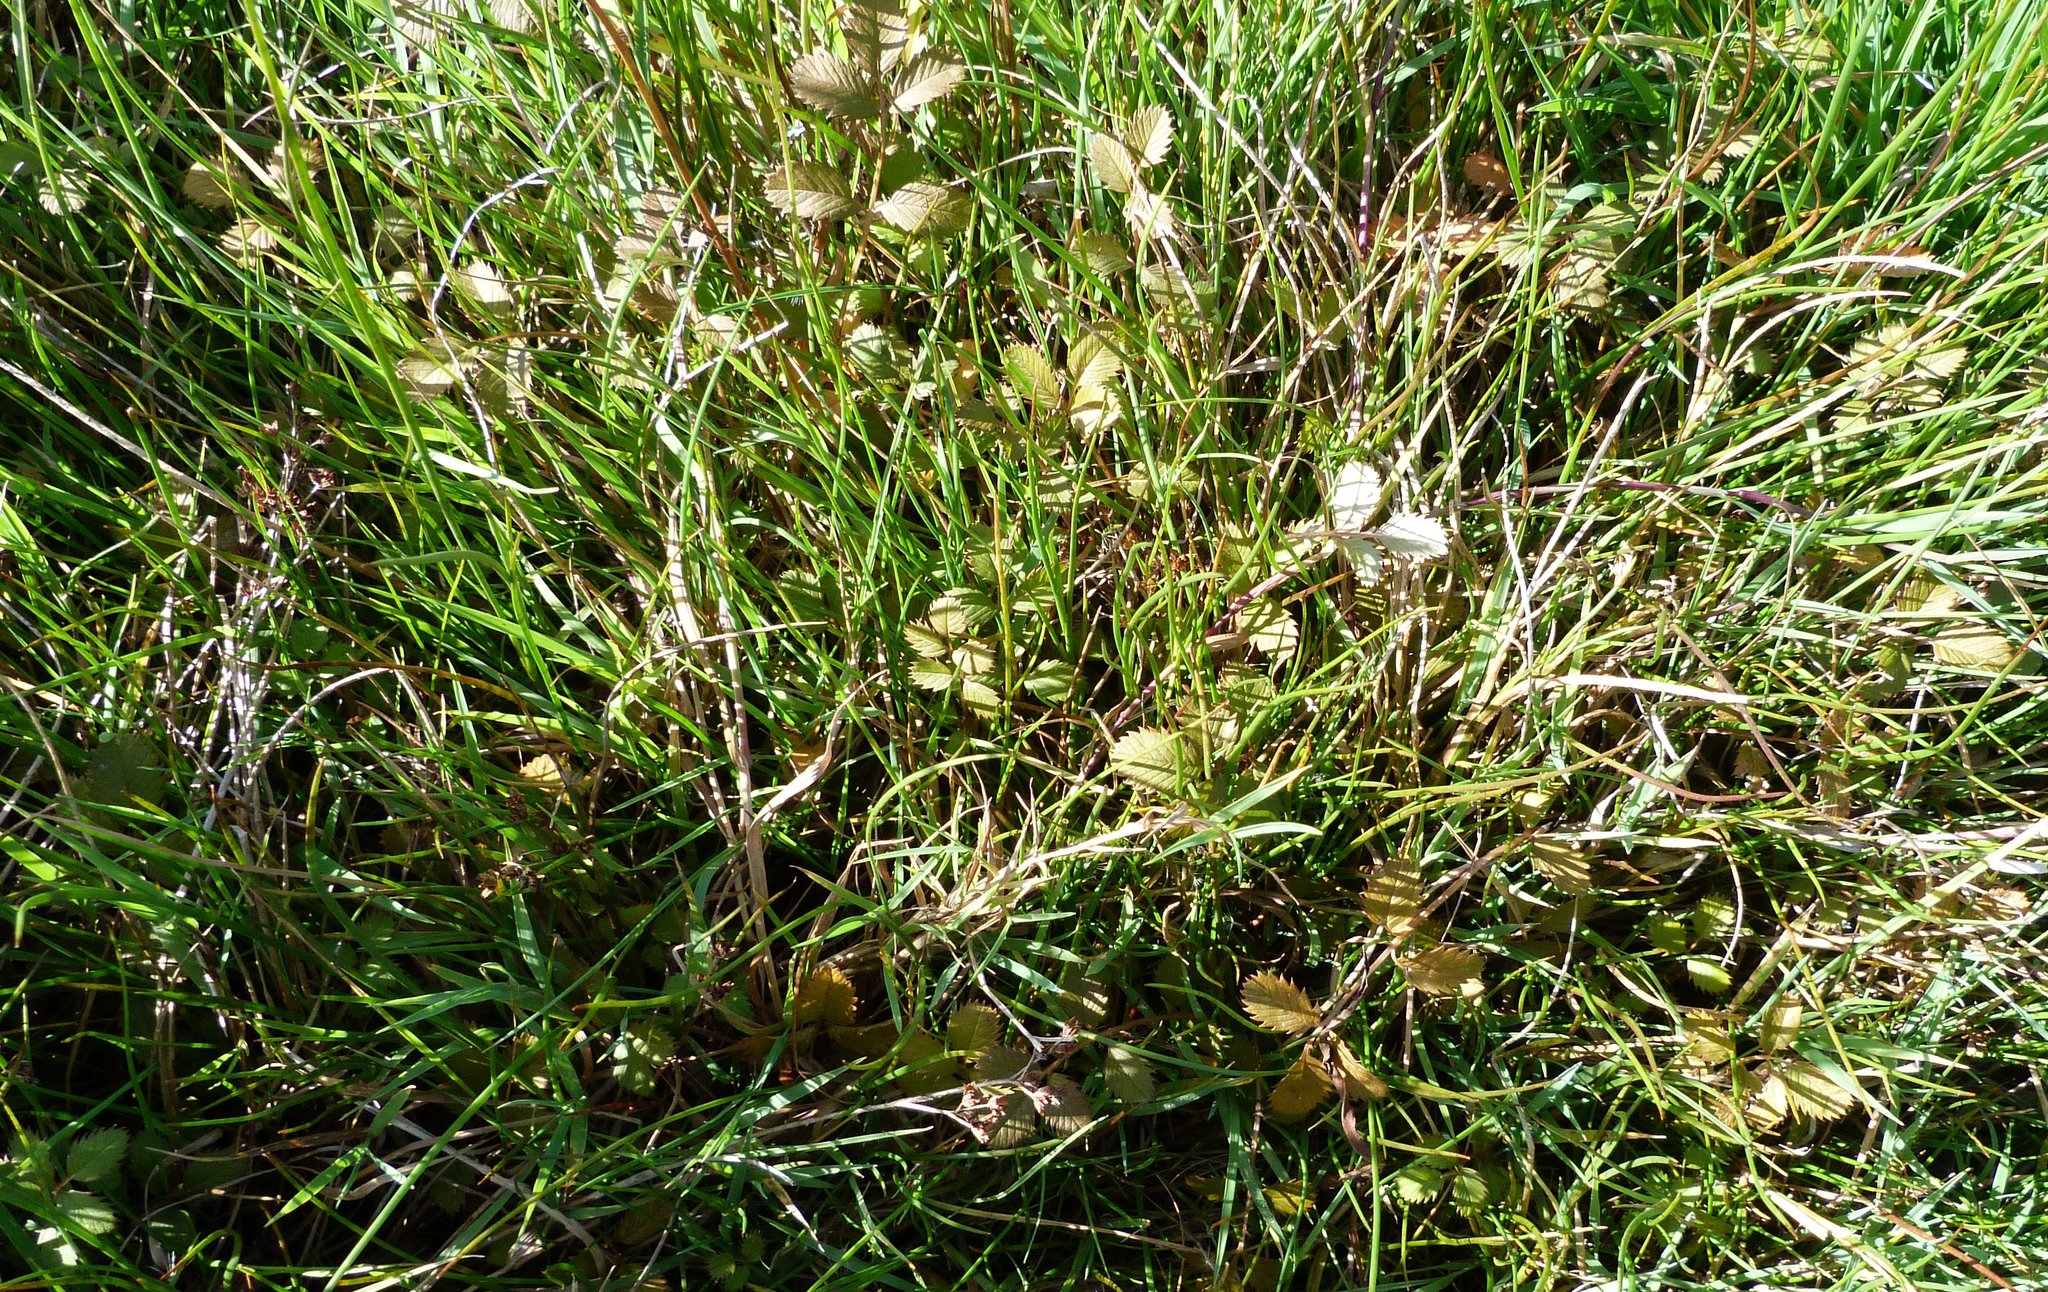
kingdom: Plantae
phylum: Tracheophyta
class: Magnoliopsida
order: Rosales
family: Rosaceae
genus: Argentina
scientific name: Argentina anserinoides
